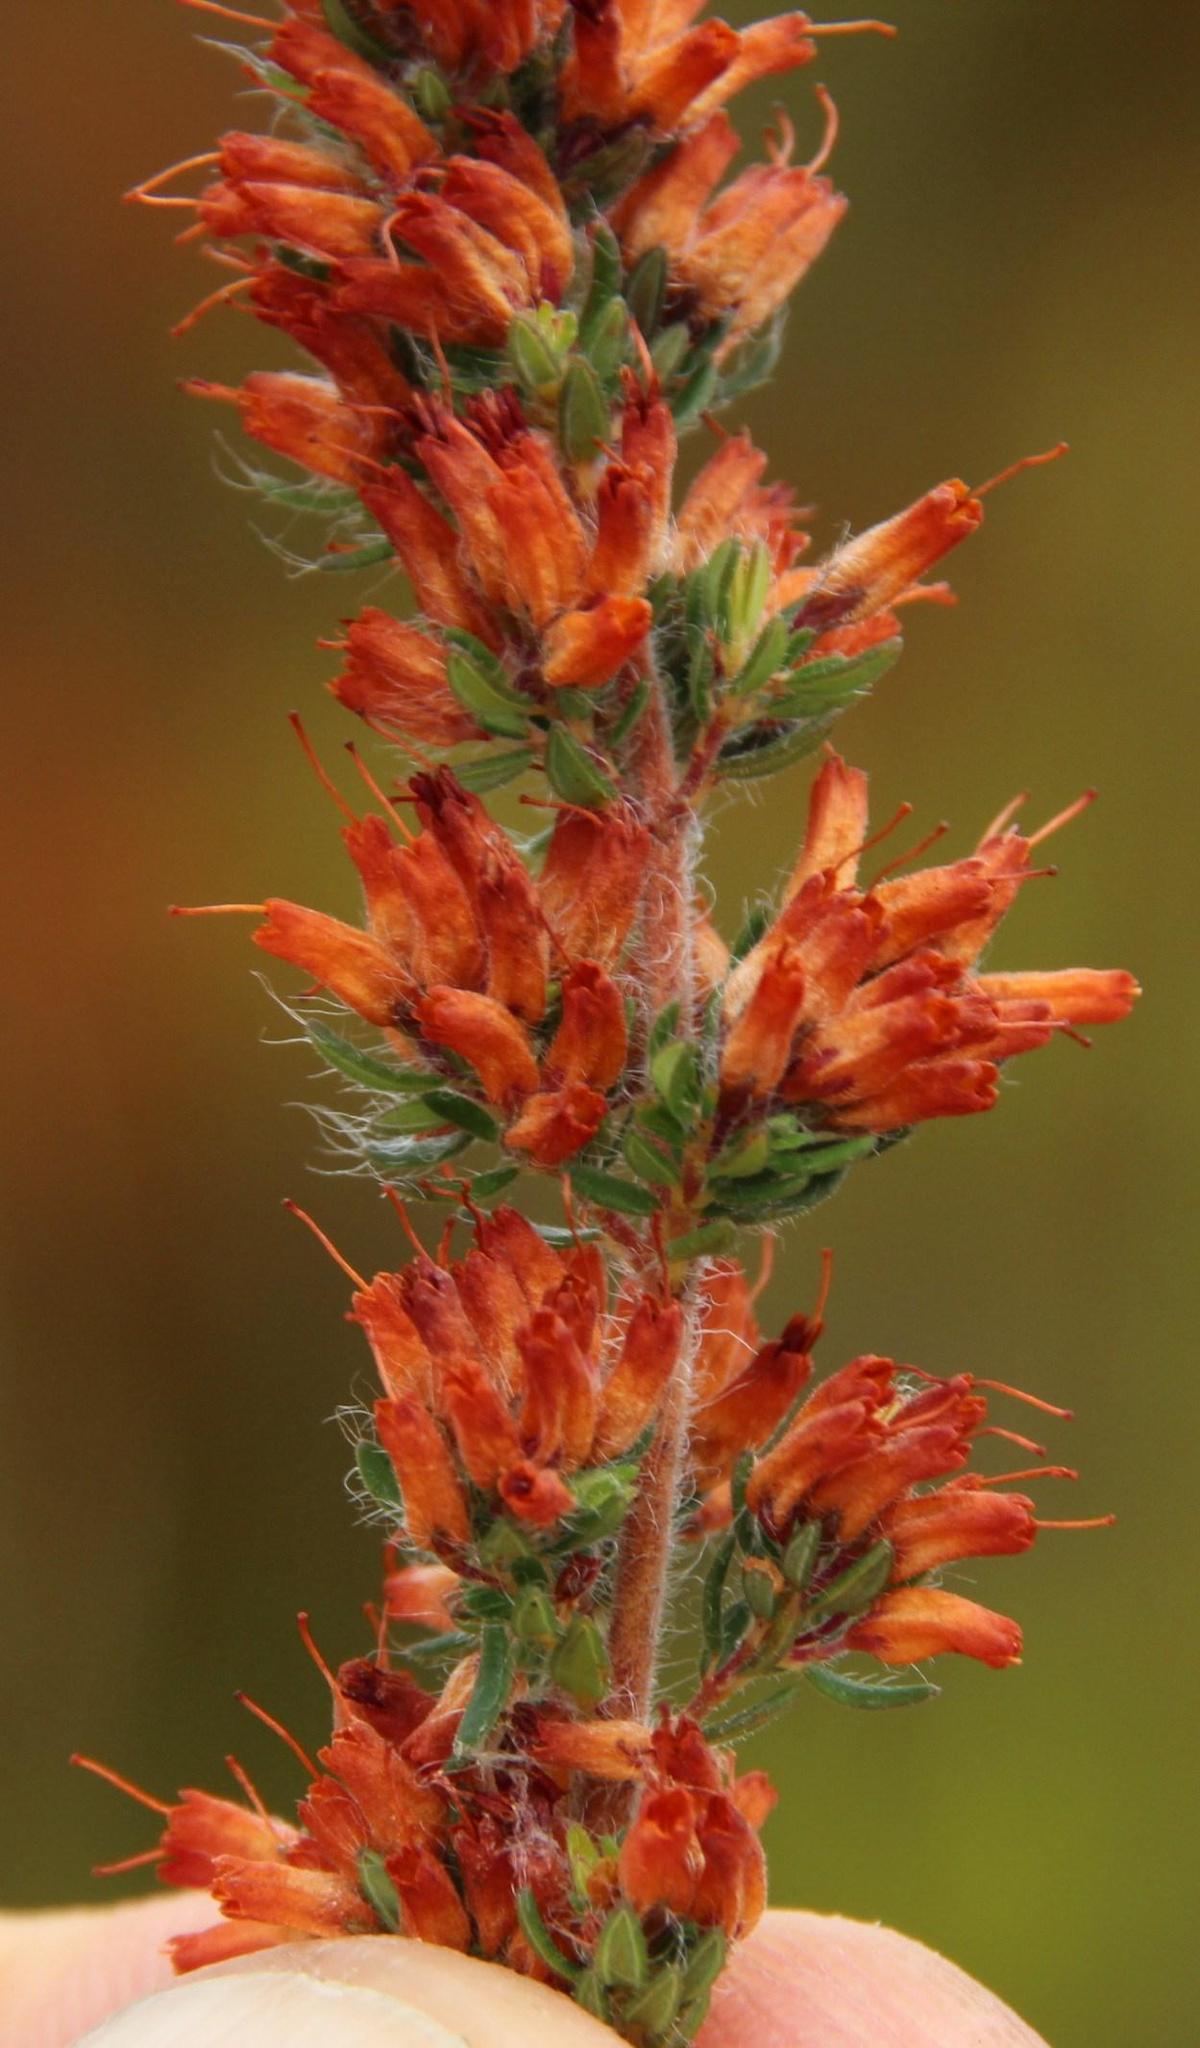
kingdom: Plantae
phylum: Tracheophyta
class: Magnoliopsida
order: Ericales
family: Ericaceae
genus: Erica
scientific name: Erica longimontana
